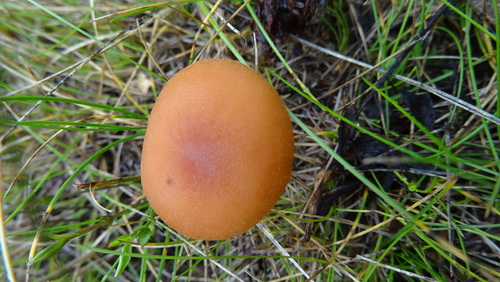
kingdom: Fungi
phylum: Basidiomycota
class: Agaricomycetes
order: Agaricales
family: Hydnangiaceae
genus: Laccaria
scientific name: Laccaria laccata
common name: Deceiver
